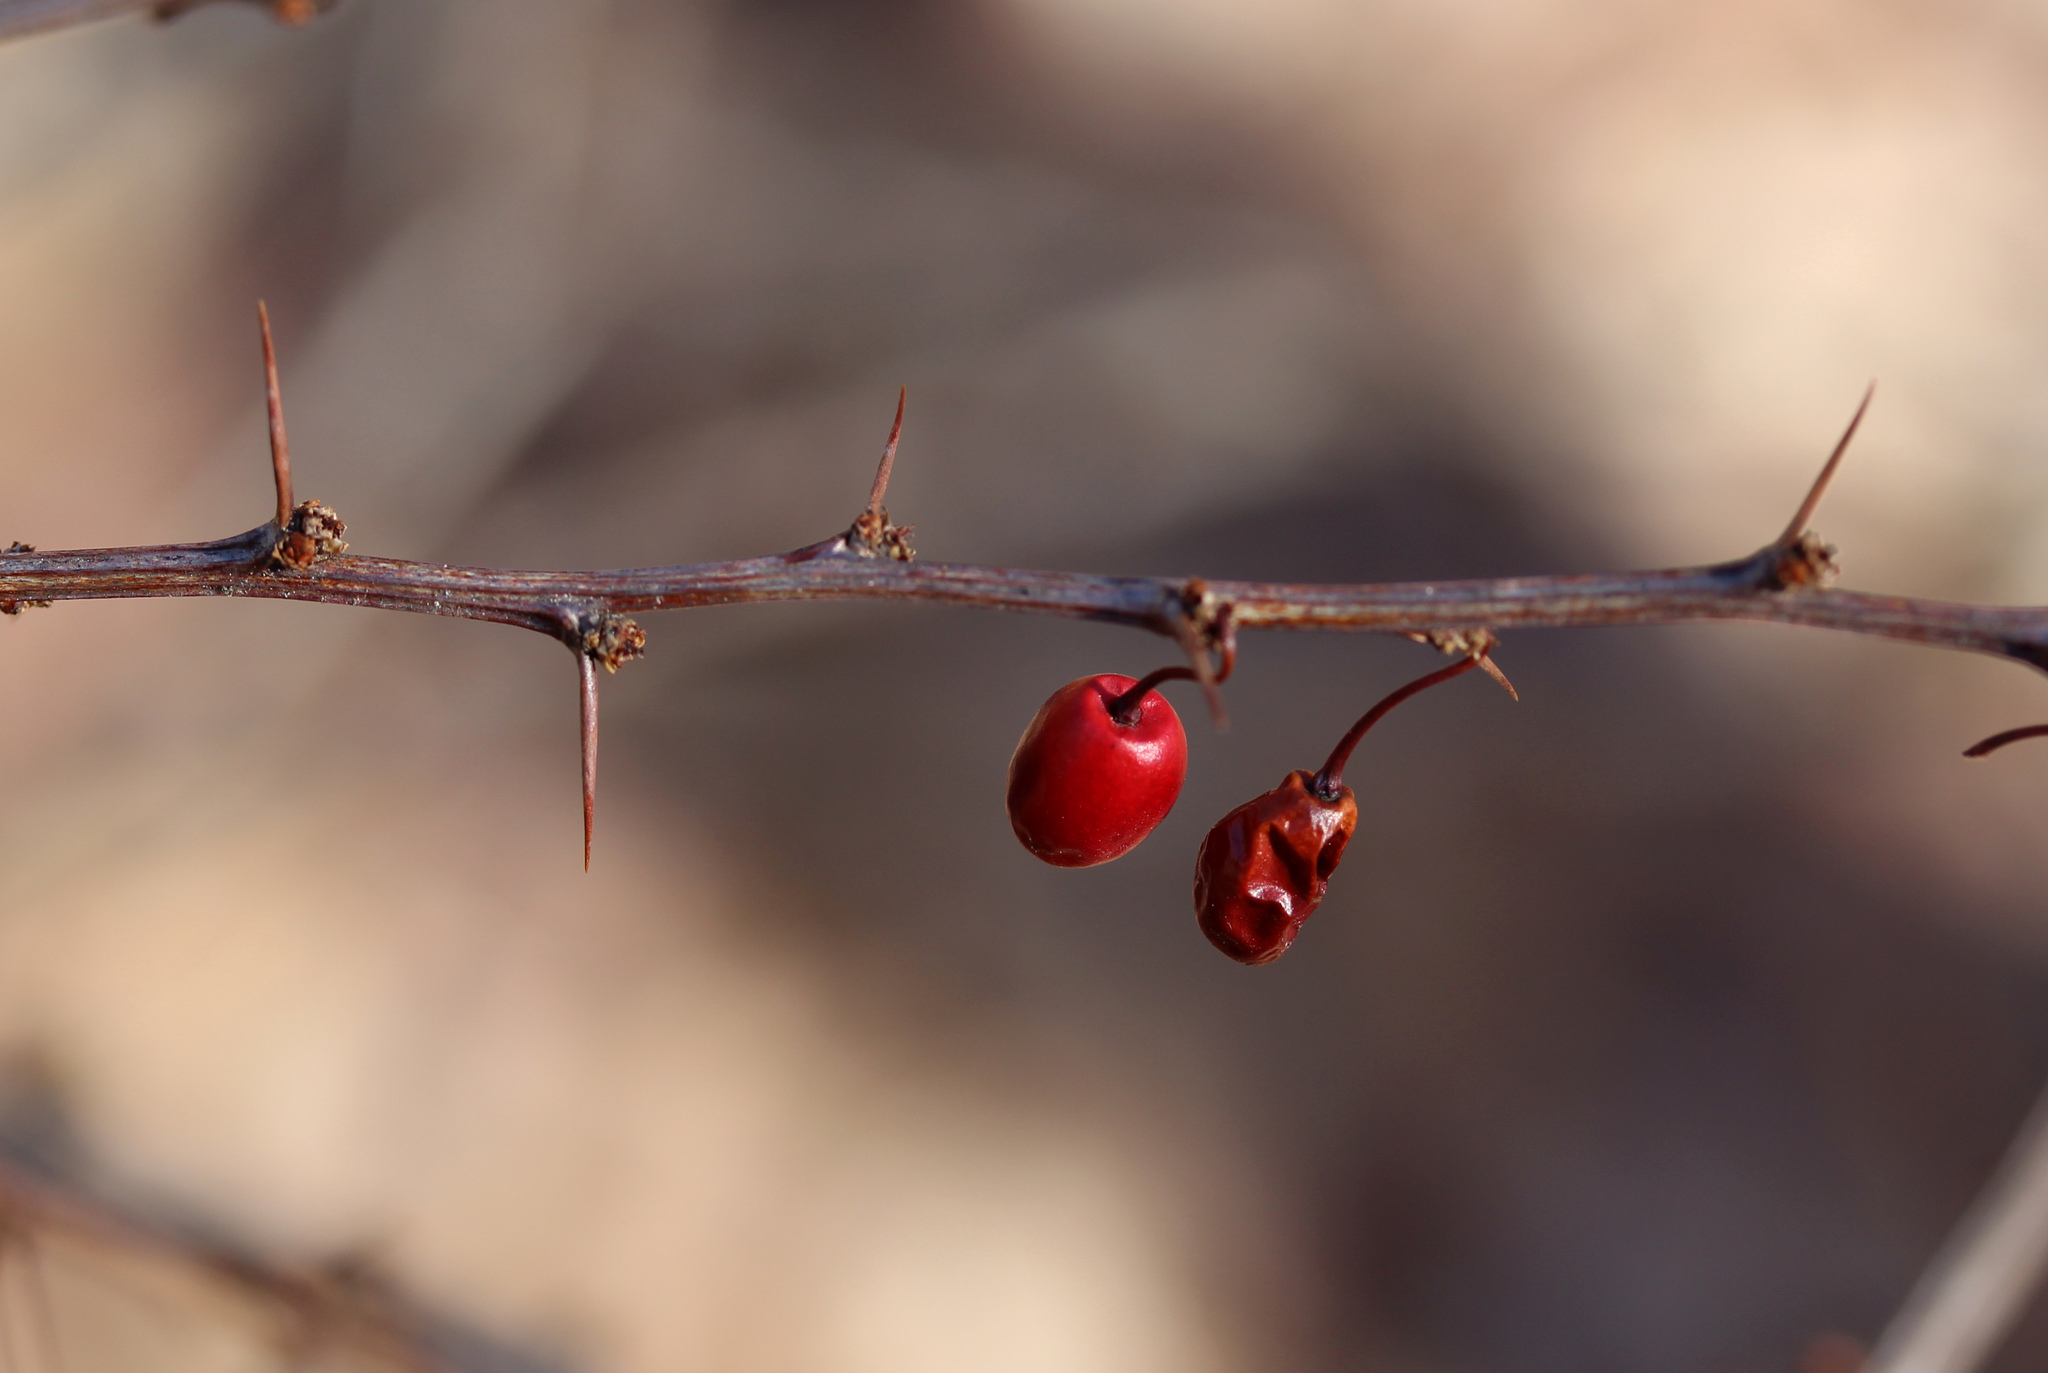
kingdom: Plantae
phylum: Tracheophyta
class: Magnoliopsida
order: Ranunculales
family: Berberidaceae
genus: Berberis
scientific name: Berberis thunbergii
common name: Japanese barberry
